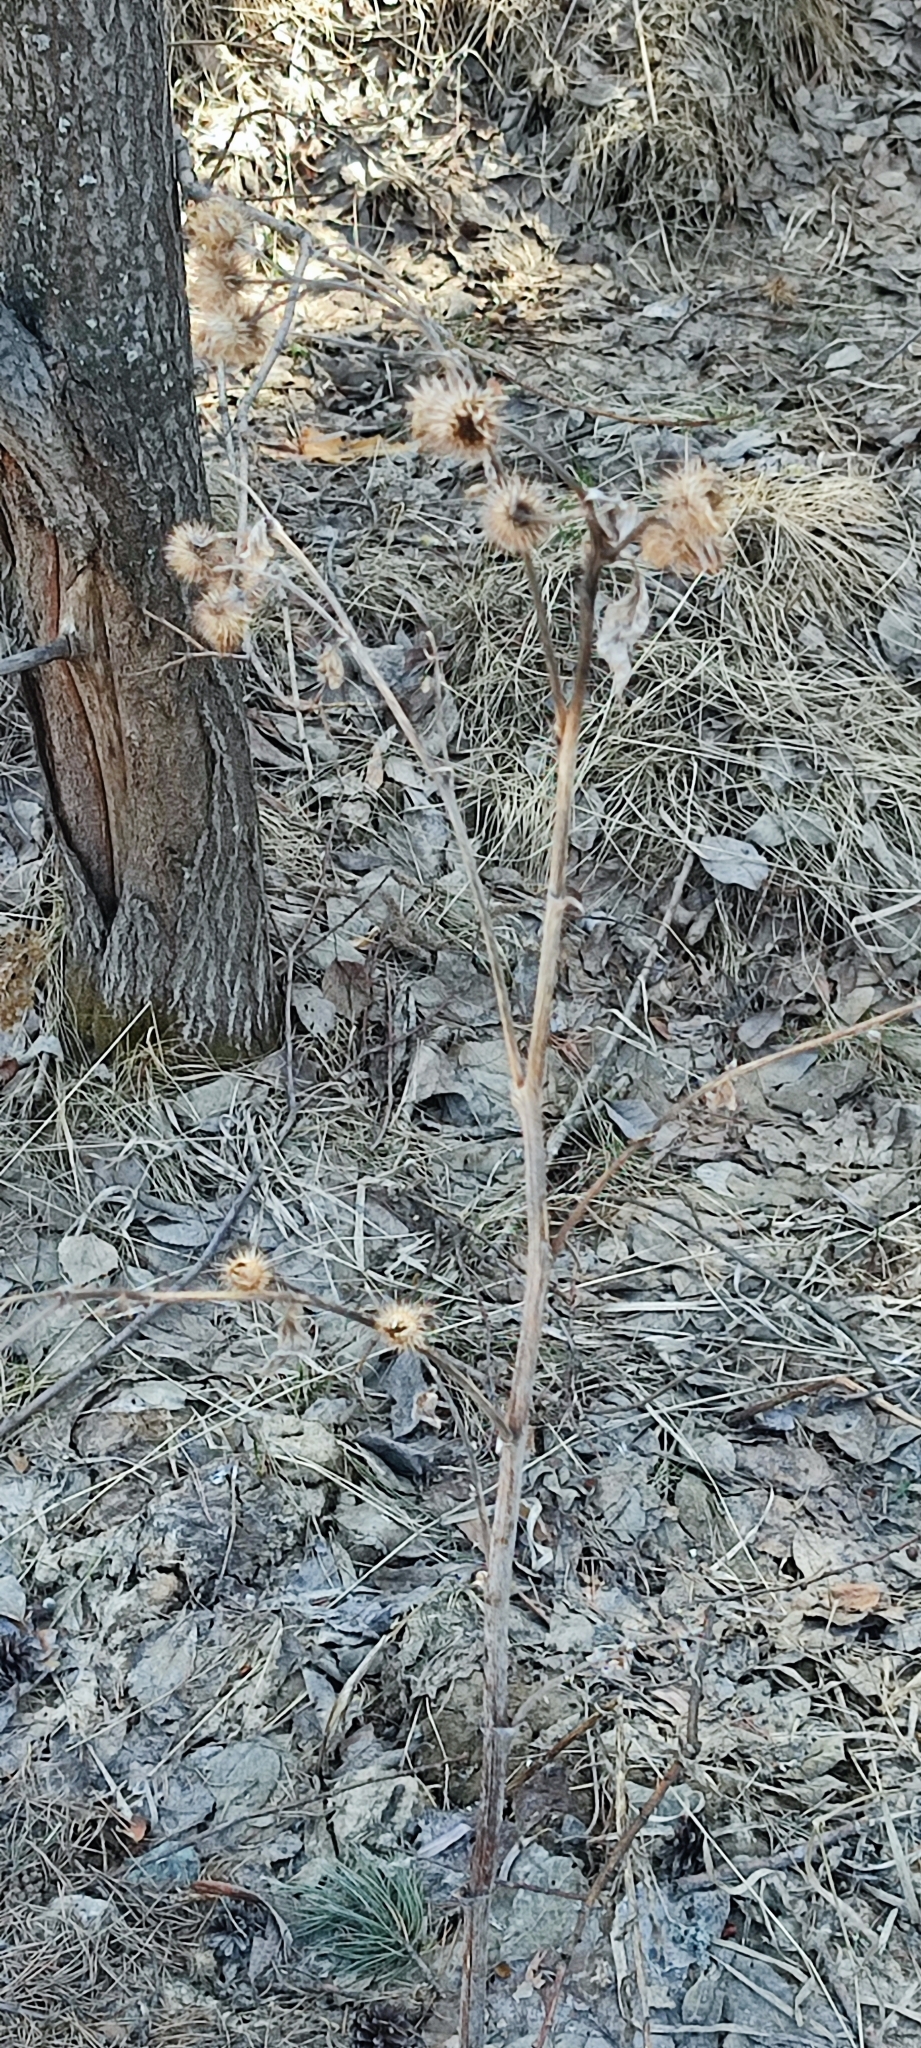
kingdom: Plantae
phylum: Tracheophyta
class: Magnoliopsida
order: Asterales
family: Asteraceae
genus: Arctium
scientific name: Arctium tomentosum
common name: Woolly burdock
